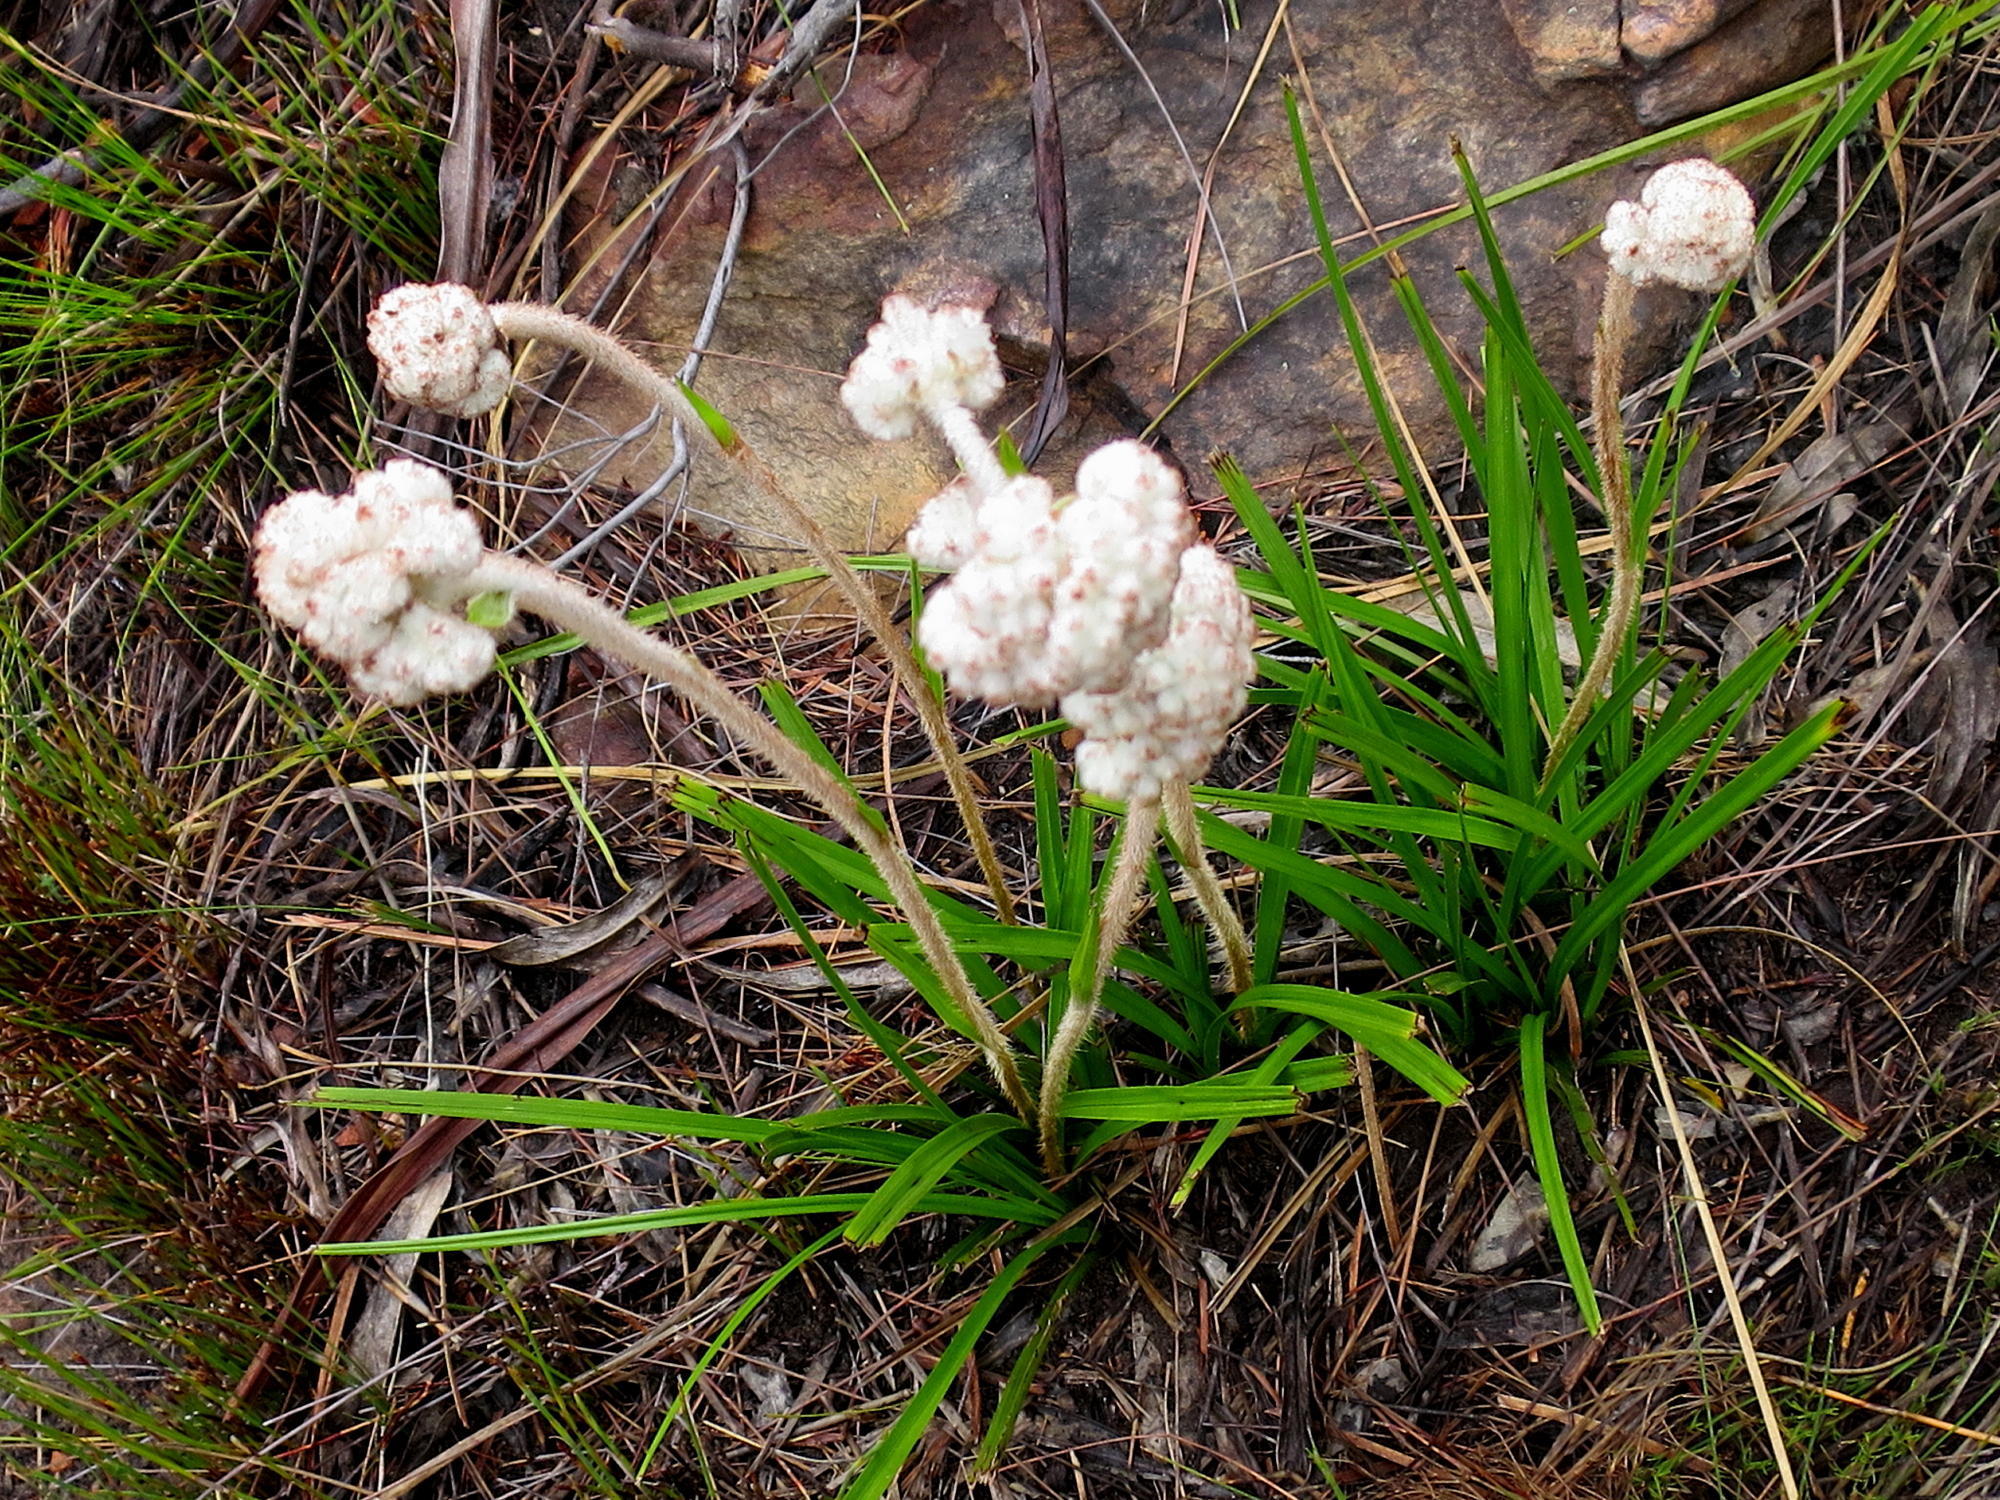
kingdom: Plantae
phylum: Tracheophyta
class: Liliopsida
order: Asparagales
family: Lanariaceae
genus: Lanaria
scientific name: Lanaria lanata
